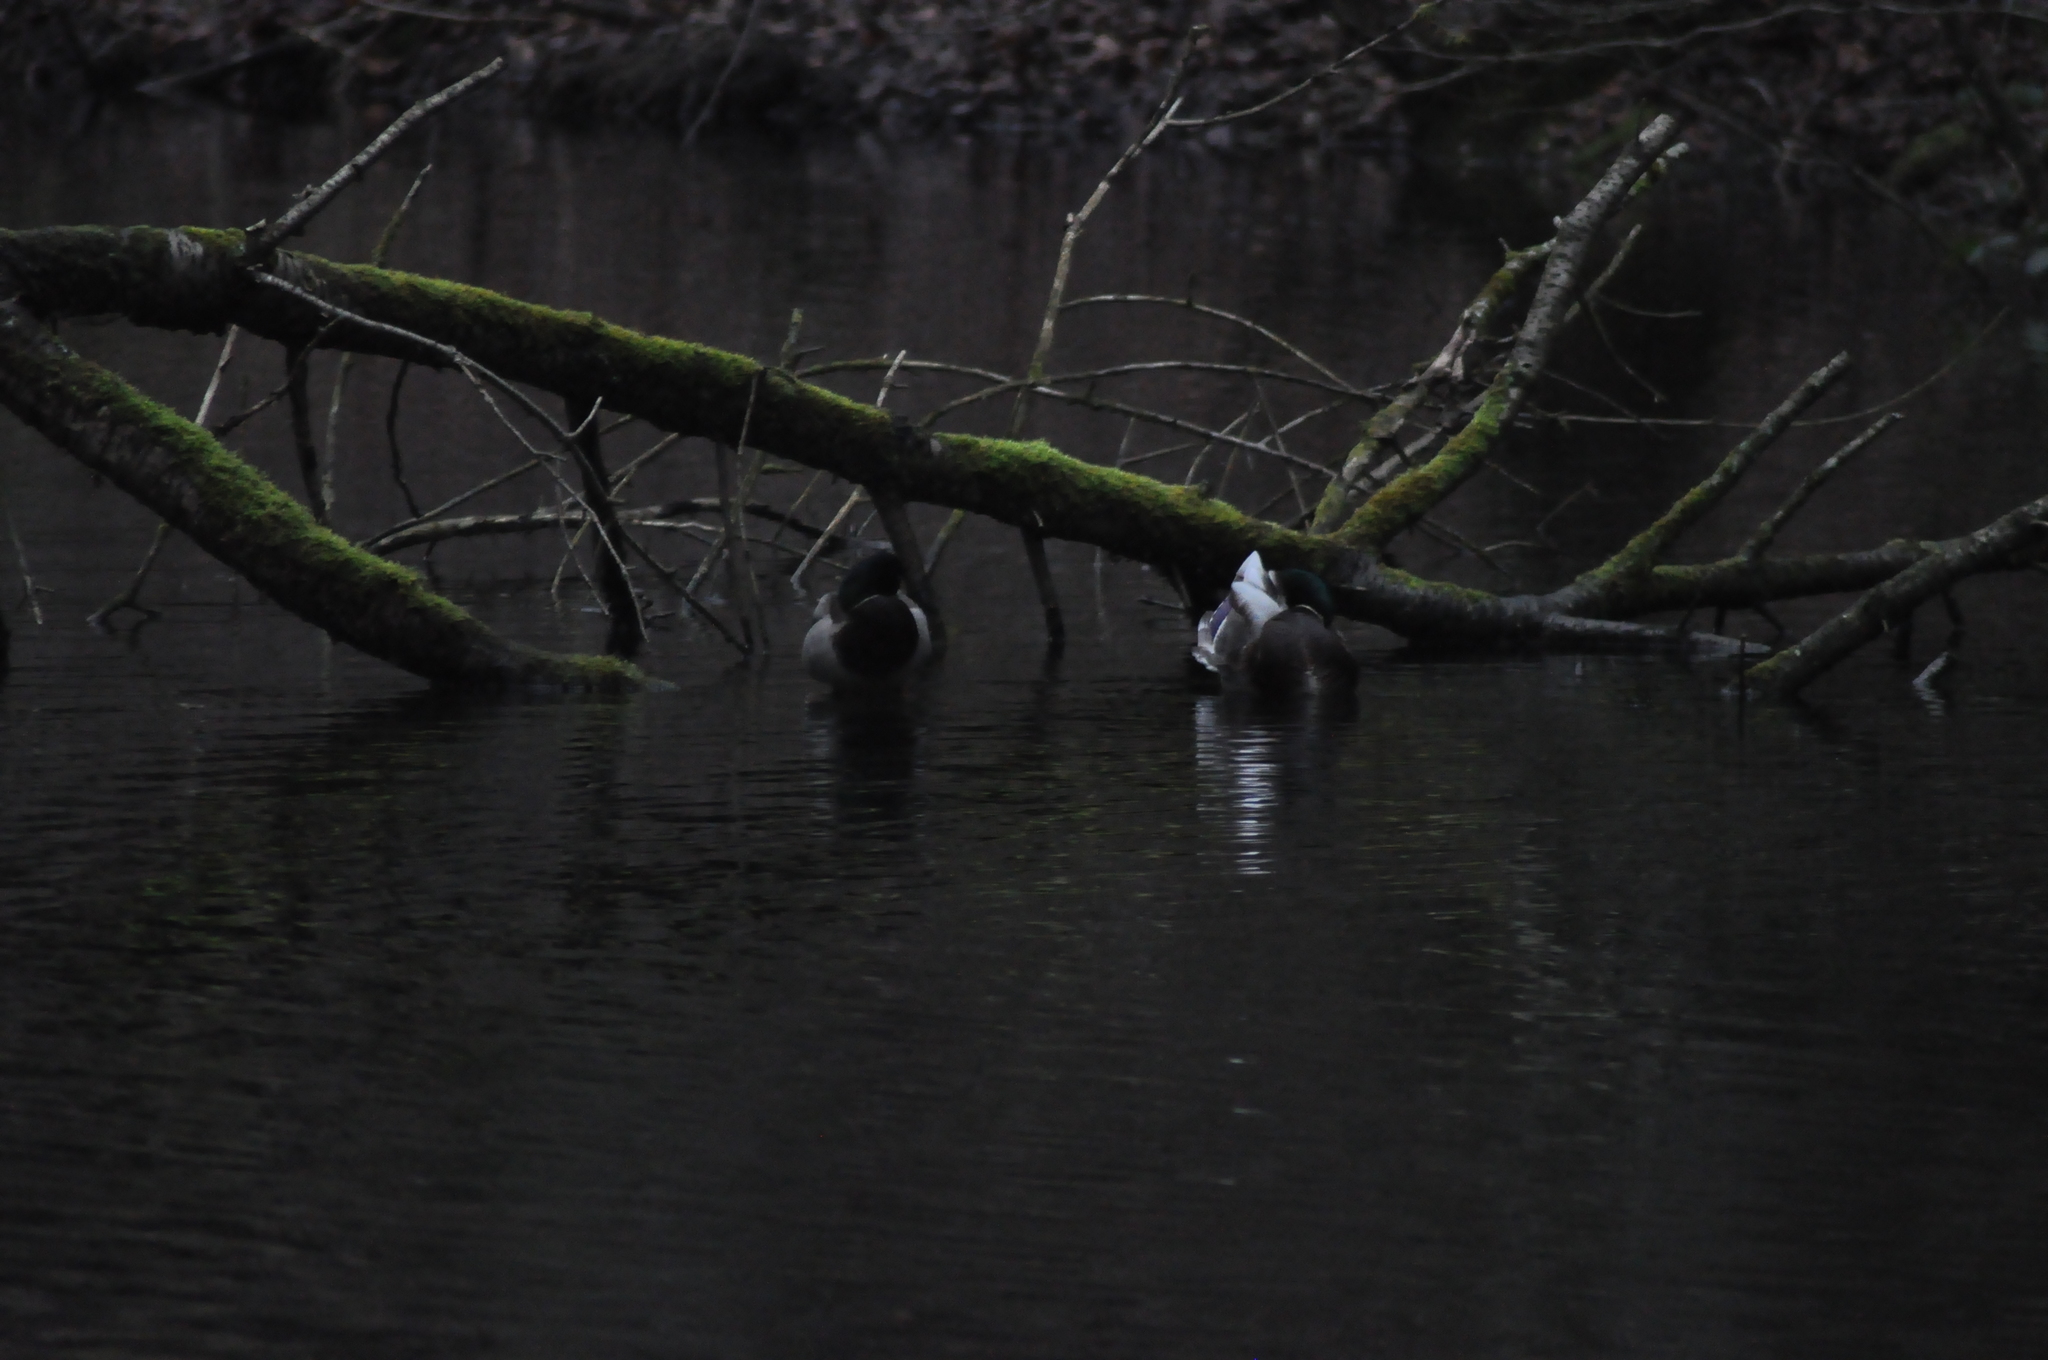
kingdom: Animalia
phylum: Chordata
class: Aves
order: Anseriformes
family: Anatidae
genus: Anas
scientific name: Anas platyrhynchos
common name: Mallard
